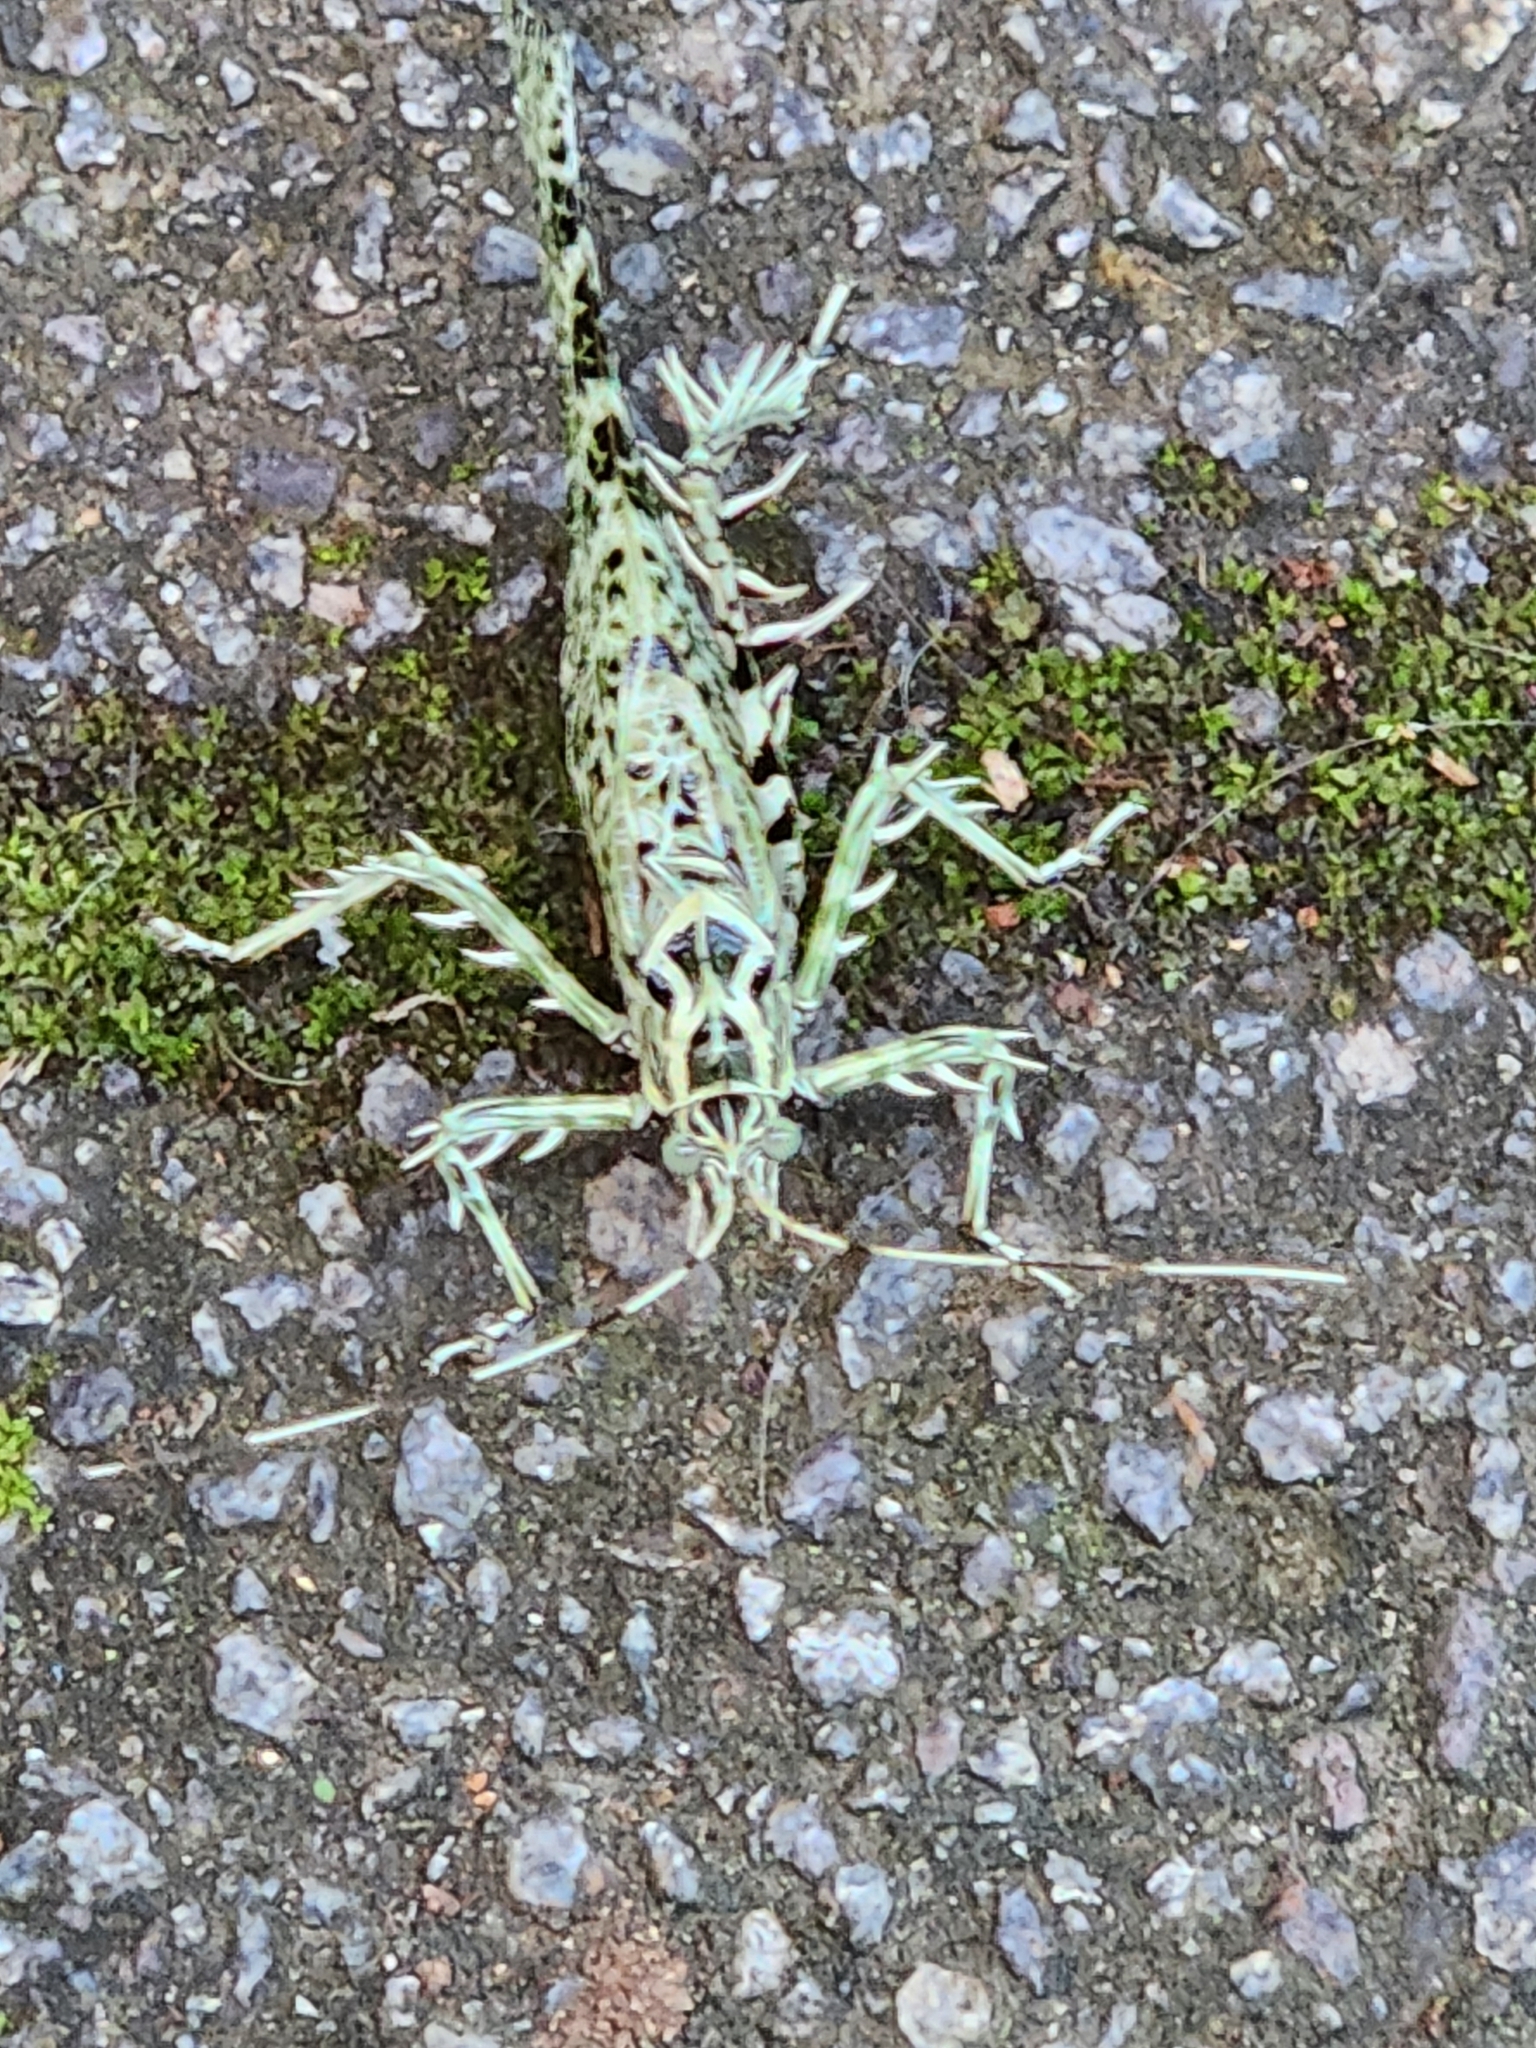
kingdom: Animalia
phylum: Arthropoda
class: Insecta
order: Orthoptera
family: Tettigoniidae
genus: Markia
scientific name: Markia espinachi
